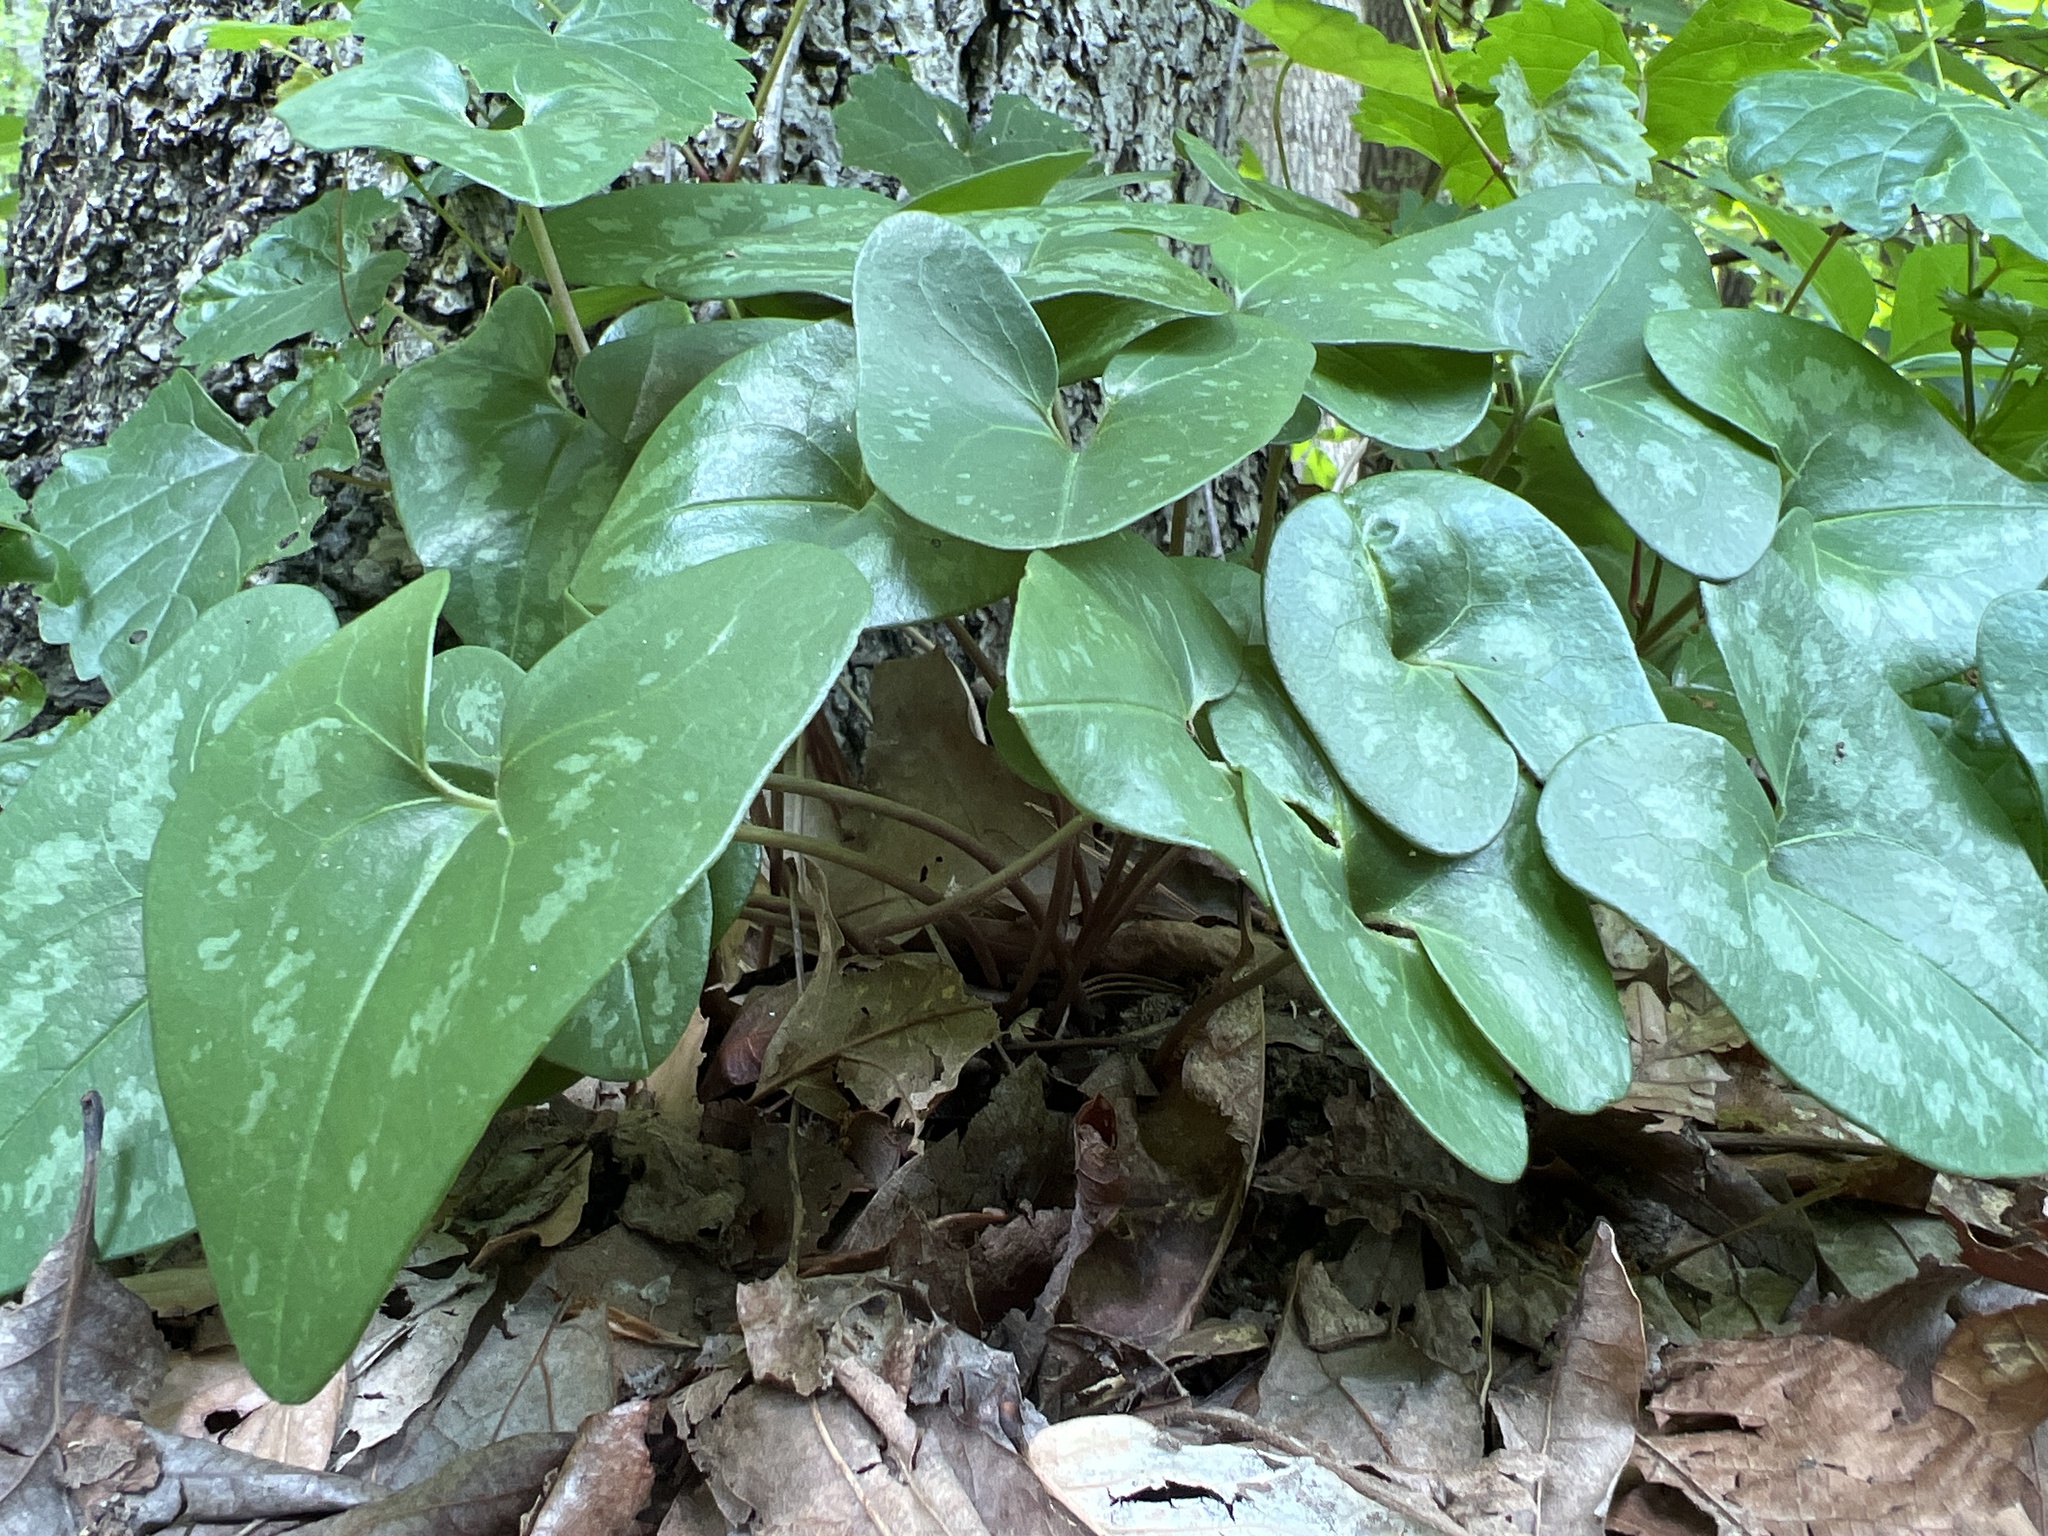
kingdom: Plantae
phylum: Tracheophyta
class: Magnoliopsida
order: Piperales
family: Aristolochiaceae
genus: Hexastylis
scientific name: Hexastylis arifolia
